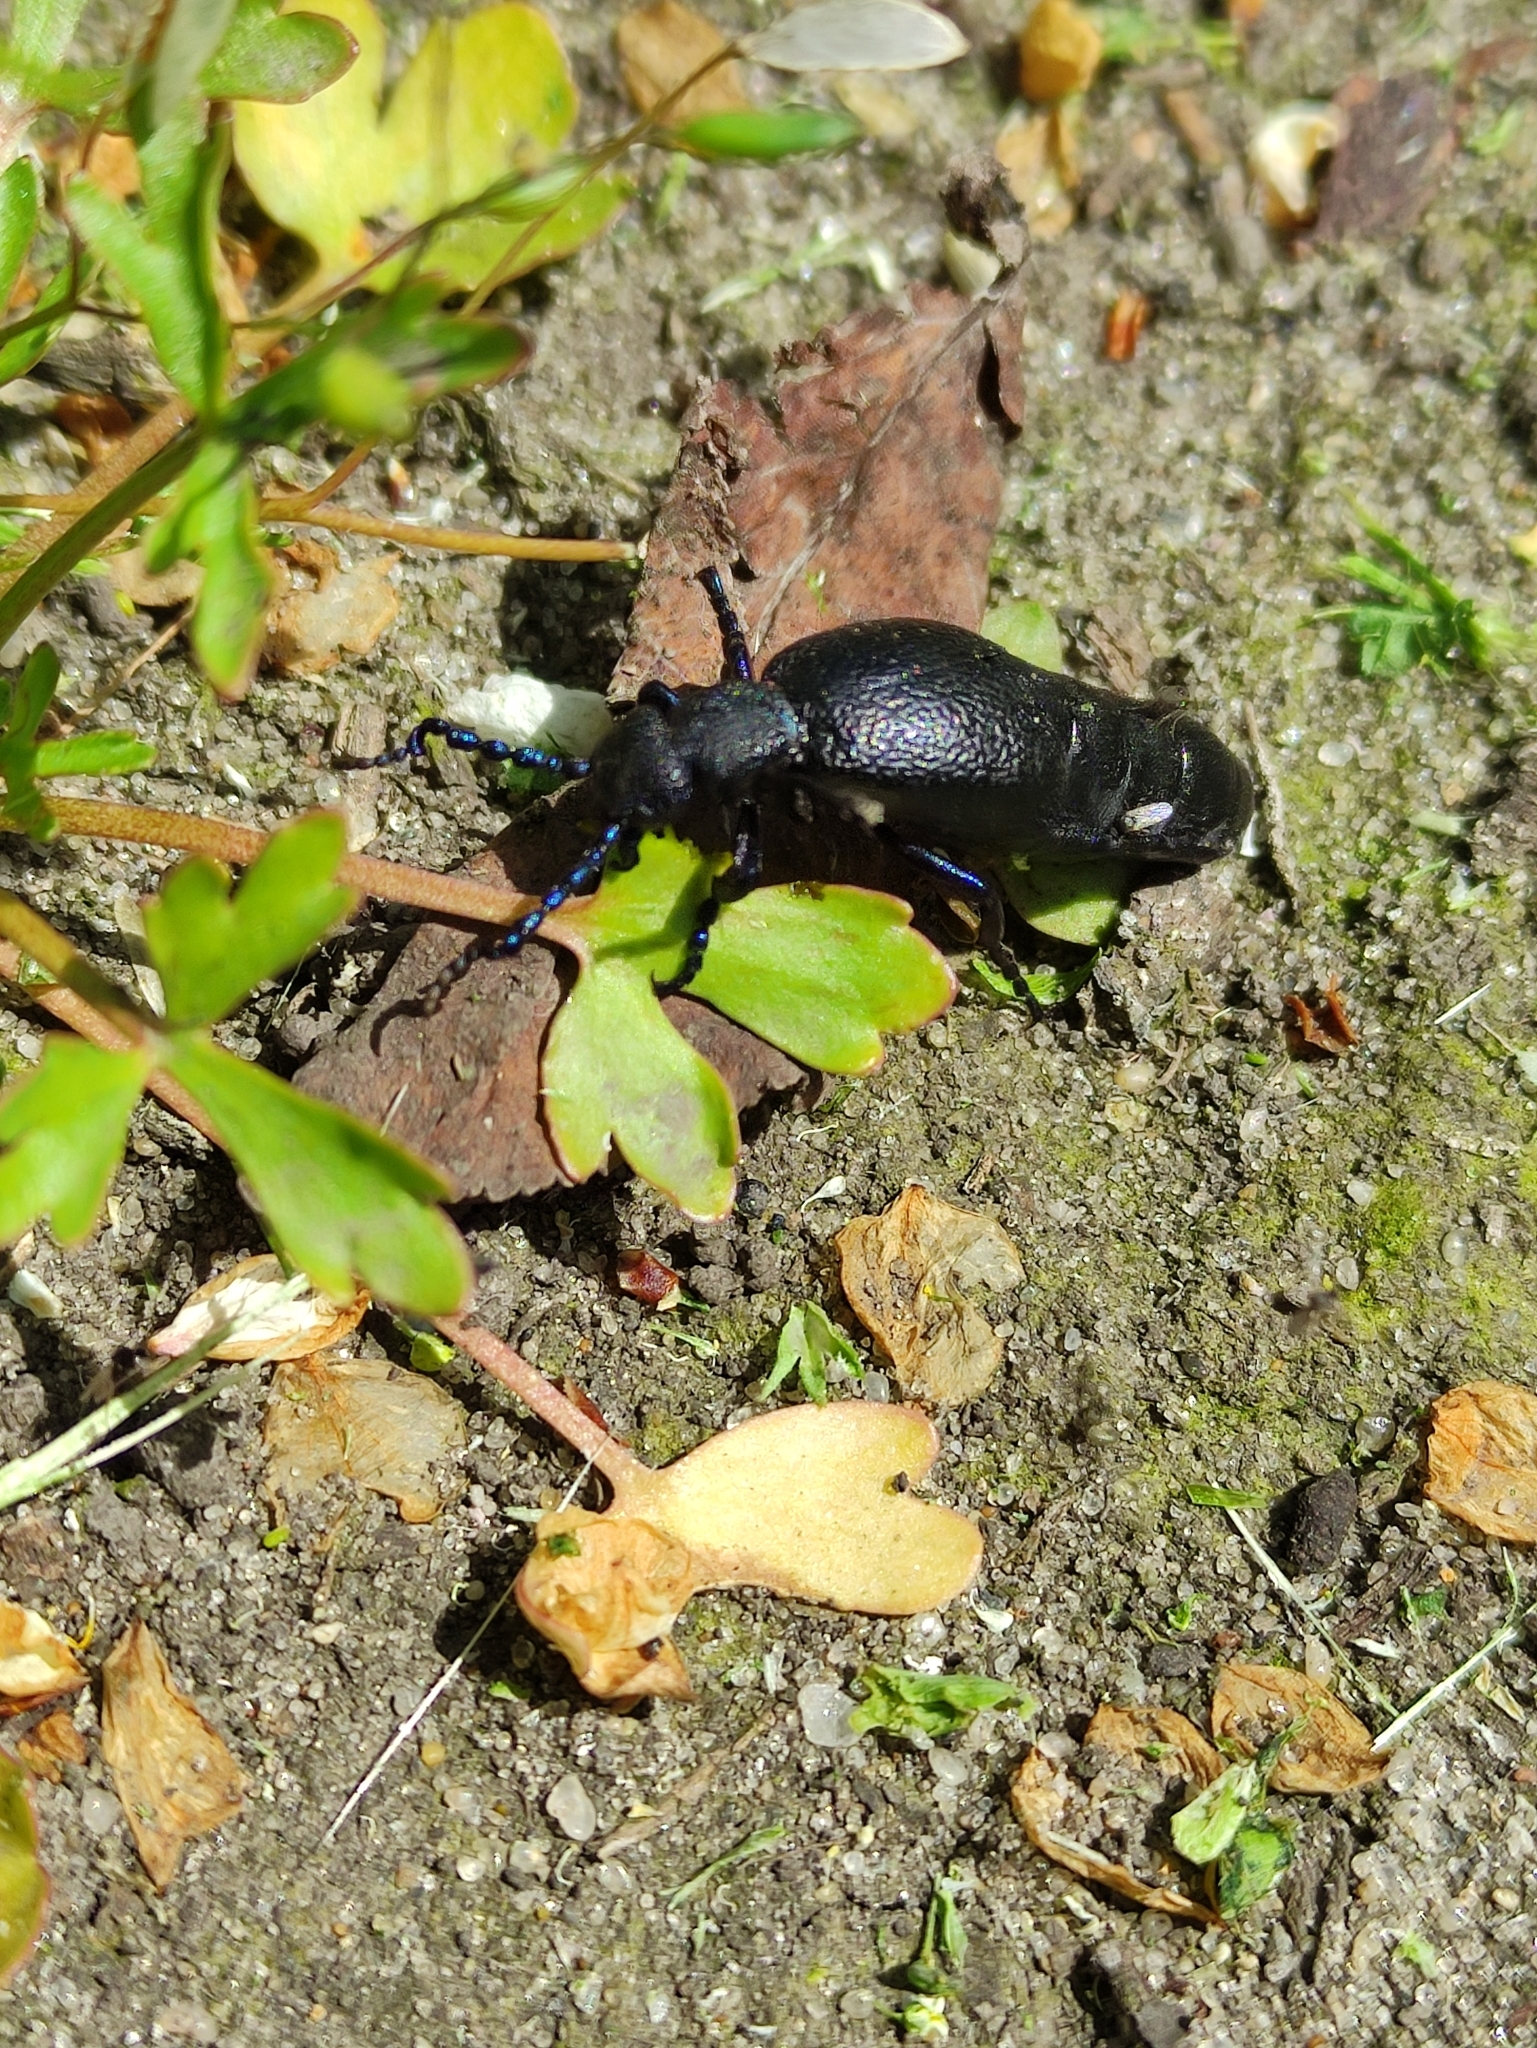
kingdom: Animalia
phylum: Arthropoda
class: Insecta
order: Coleoptera
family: Meloidae
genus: Meloe
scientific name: Meloe proscarabaeus
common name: Black oil-beetle
